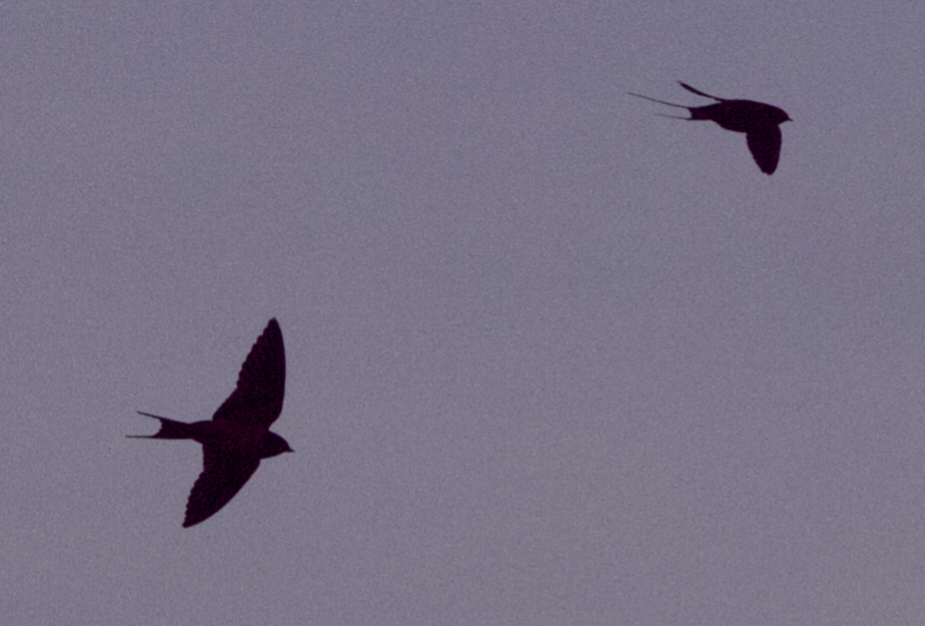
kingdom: Animalia
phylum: Chordata
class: Aves
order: Passeriformes
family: Hirundinidae
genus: Hirundo
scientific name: Hirundo rustica
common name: Barn swallow
